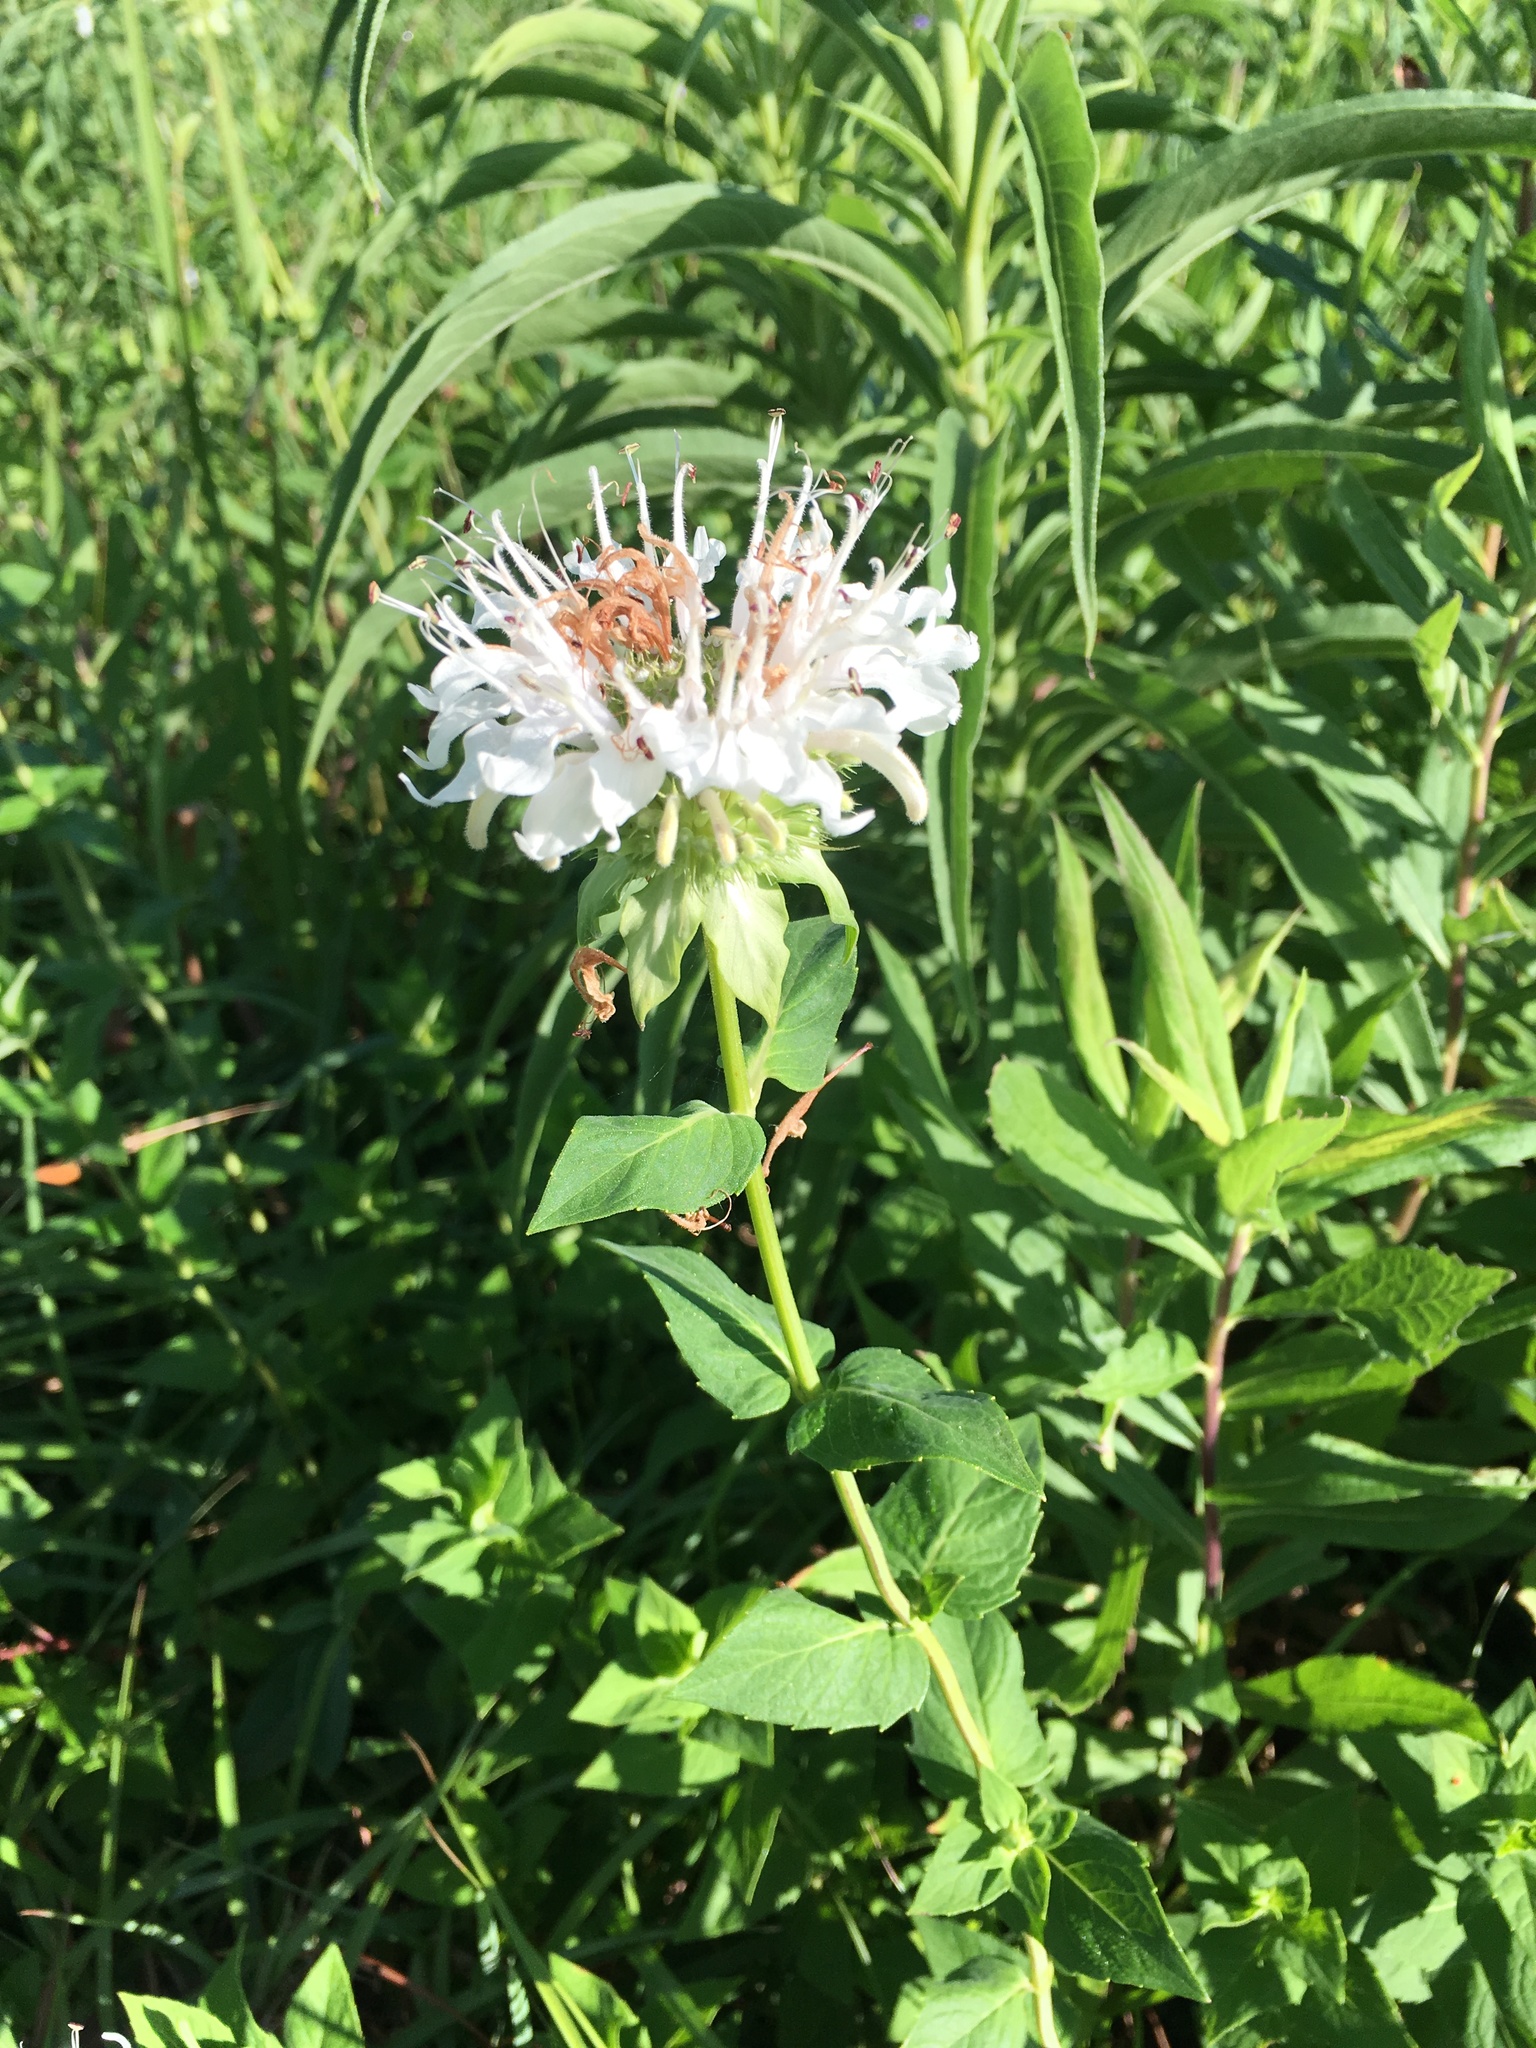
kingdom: Plantae
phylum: Tracheophyta
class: Magnoliopsida
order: Lamiales
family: Lamiaceae
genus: Monarda
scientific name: Monarda lindheimeri
